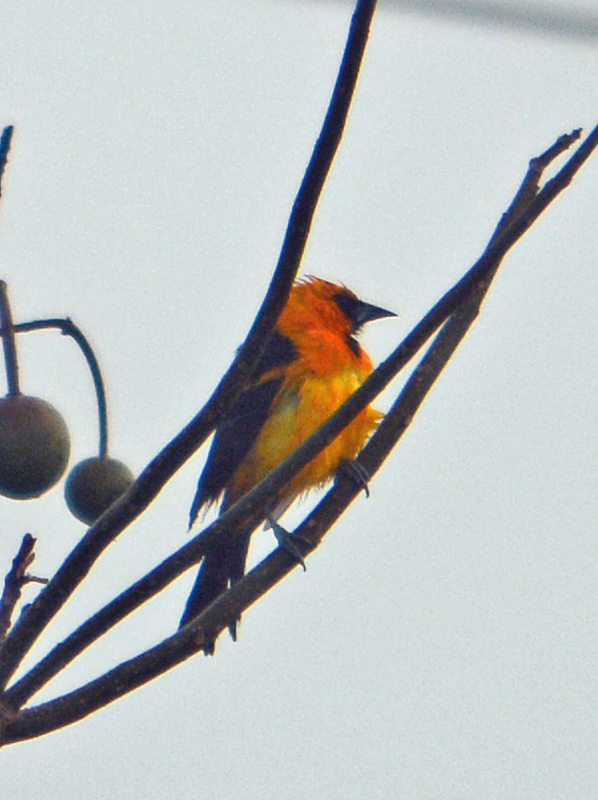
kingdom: Animalia
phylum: Chordata
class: Aves
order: Passeriformes
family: Icteridae
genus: Icterus
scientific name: Icterus gularis
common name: Altamira oriole
